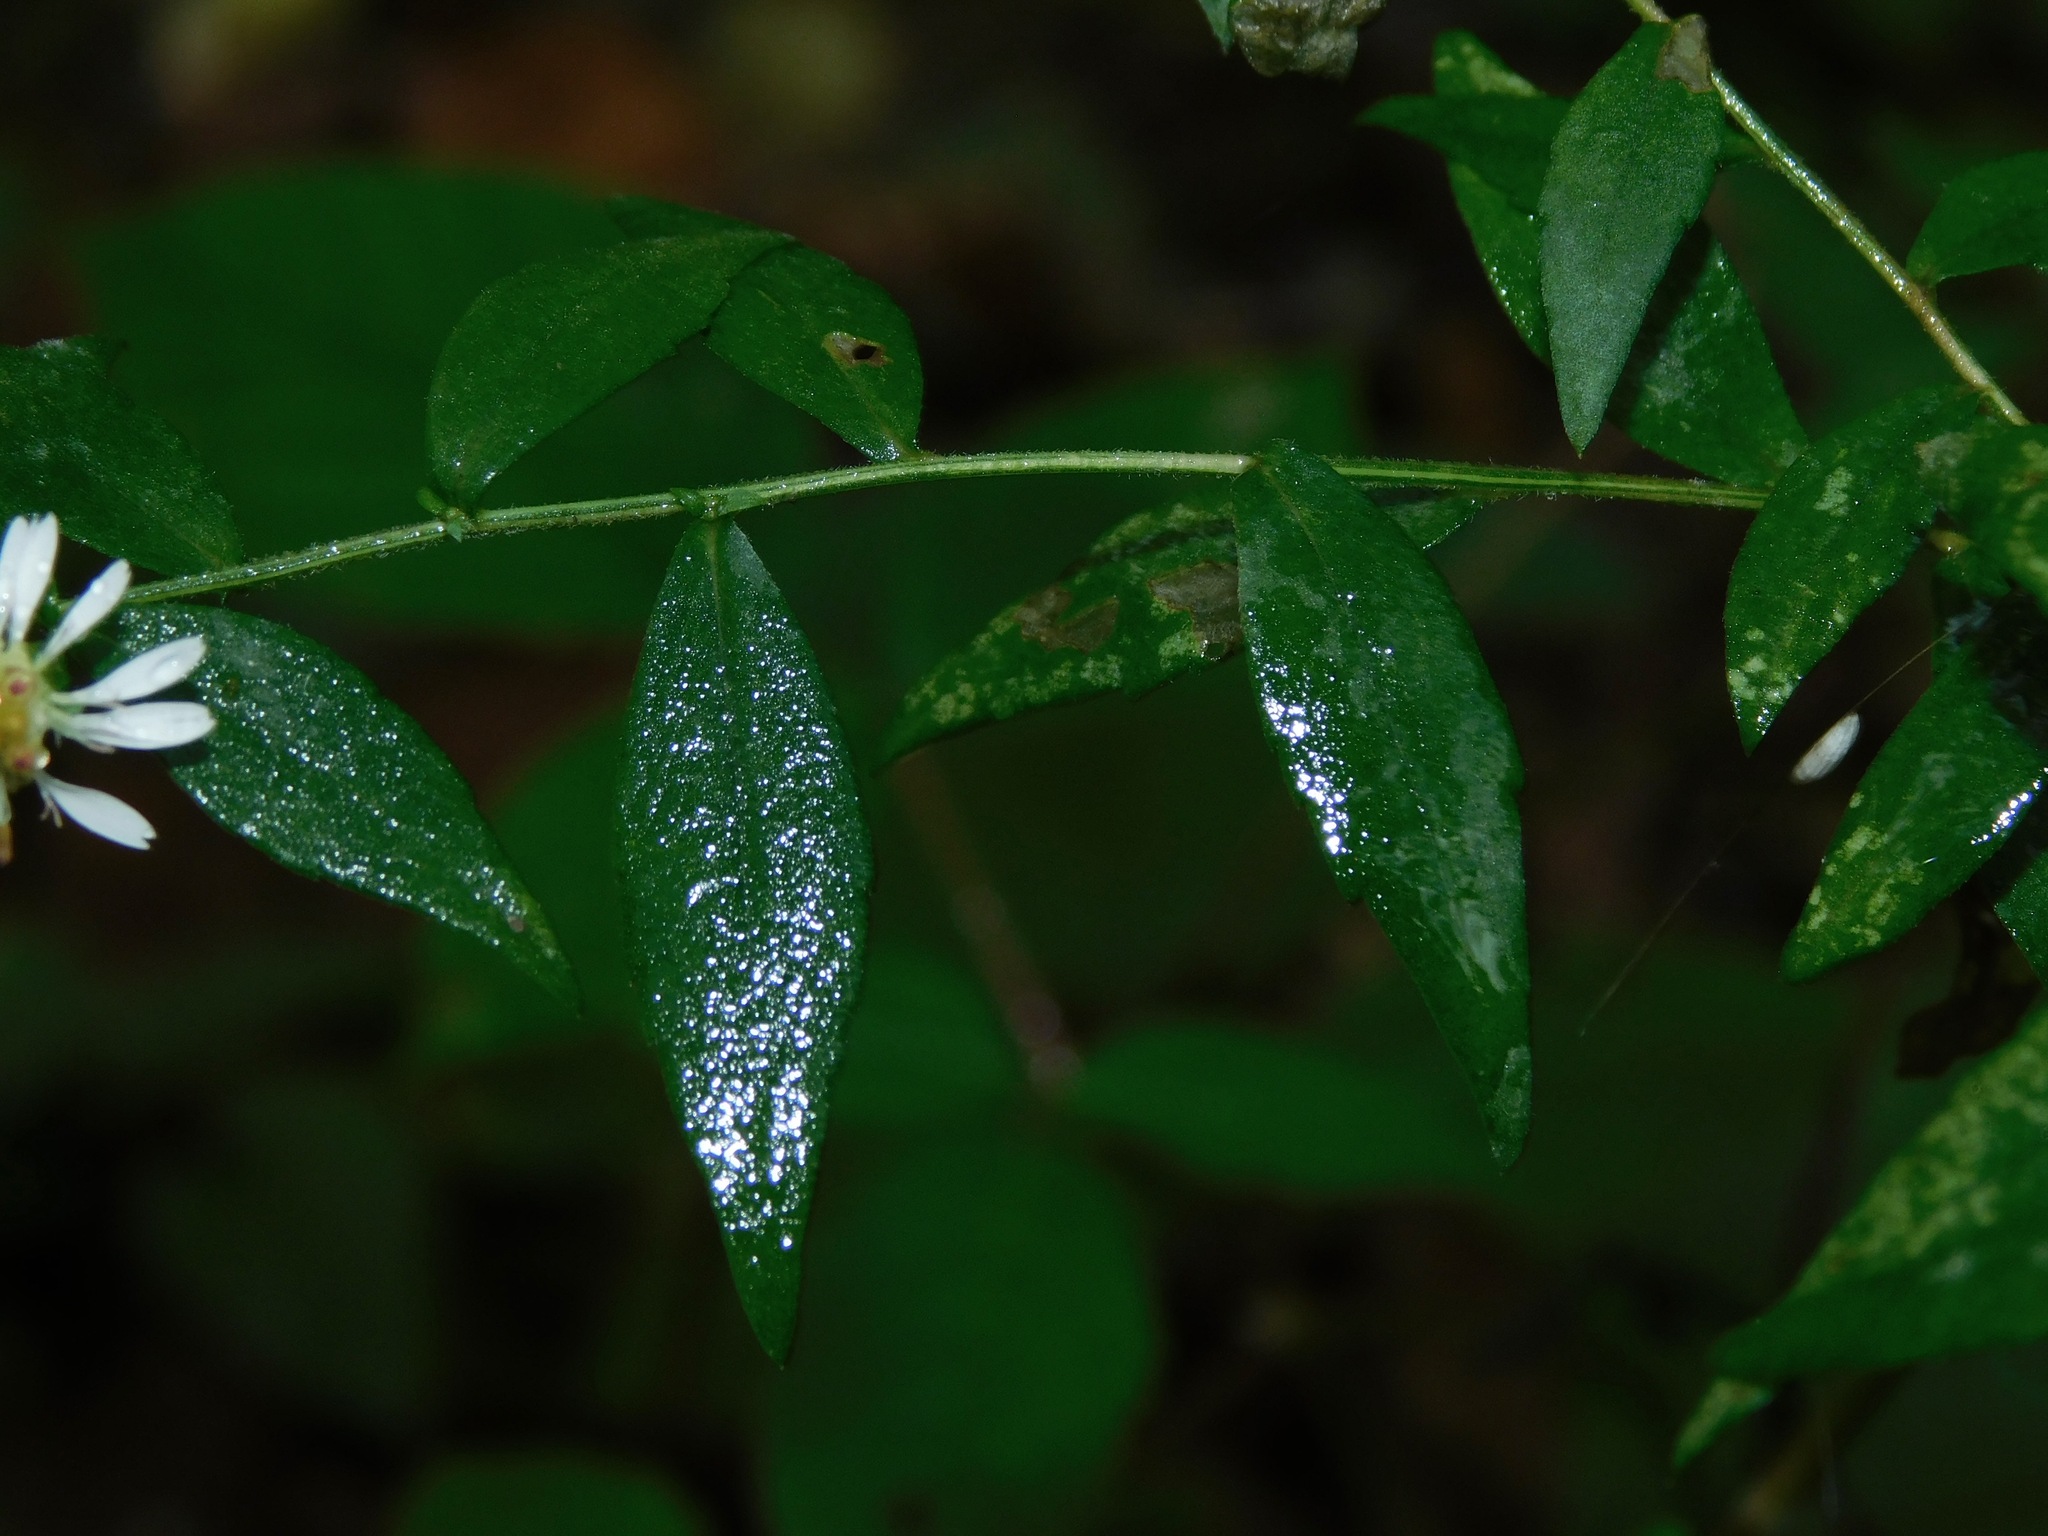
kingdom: Plantae
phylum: Tracheophyta
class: Magnoliopsida
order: Asterales
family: Asteraceae
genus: Symphyotrichum
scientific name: Symphyotrichum lateriflorum
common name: Calico aster
